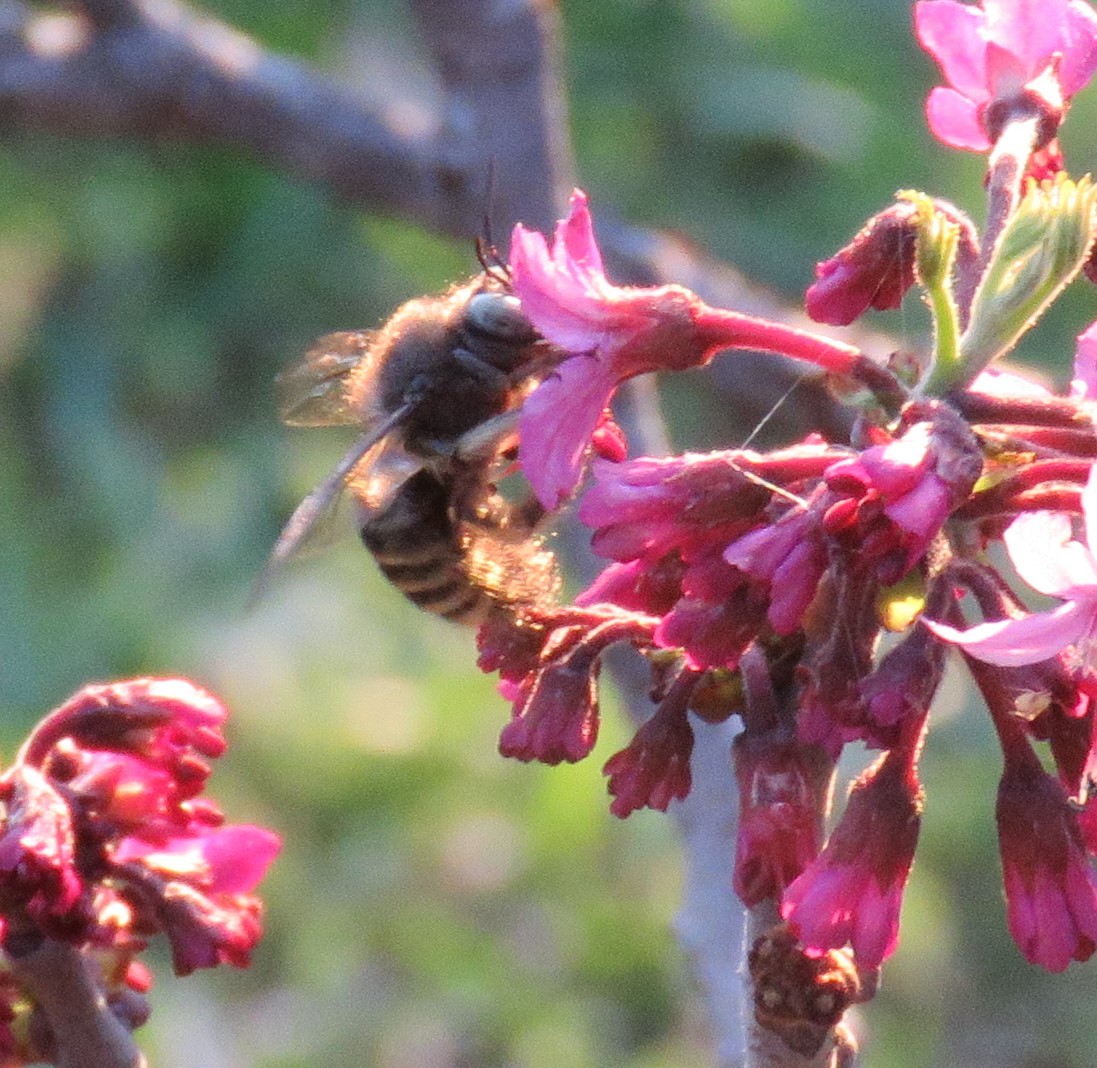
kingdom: Animalia
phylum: Arthropoda
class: Insecta
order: Hymenoptera
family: Apidae
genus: Xylocopa
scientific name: Xylocopa tabaniformis
